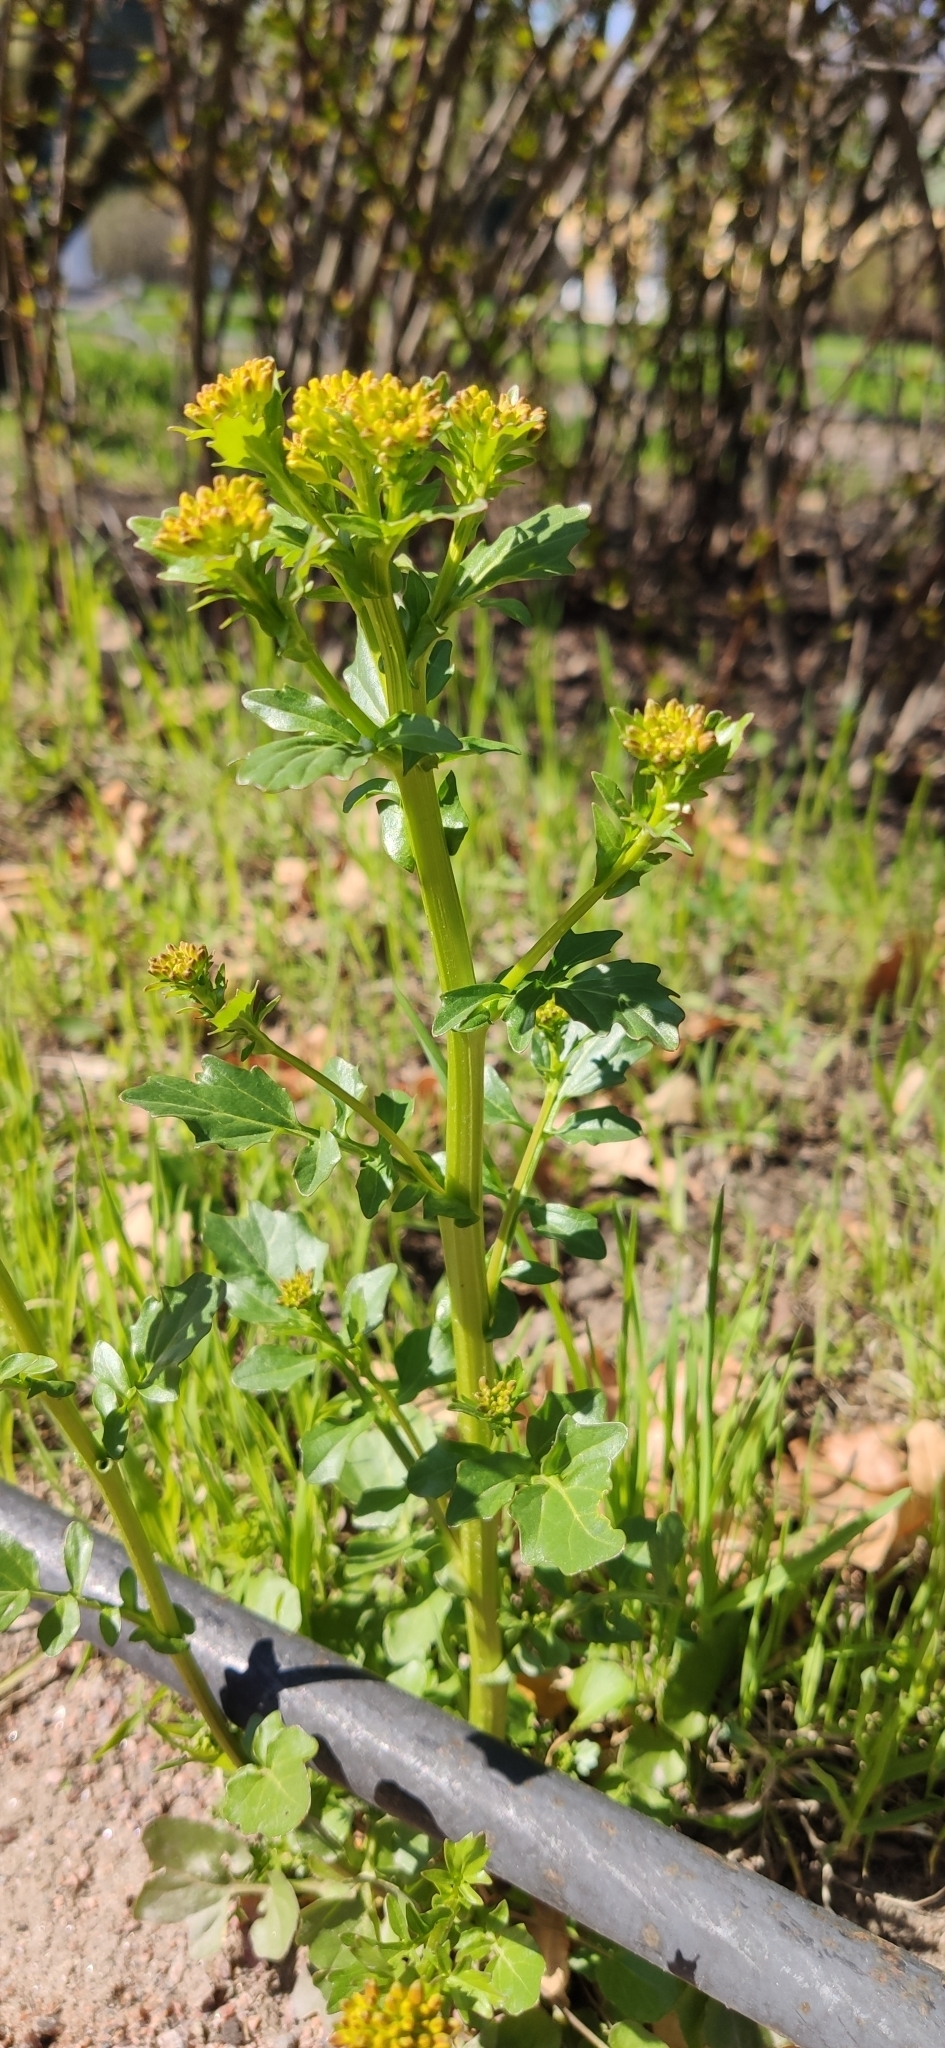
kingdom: Plantae
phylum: Tracheophyta
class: Magnoliopsida
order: Brassicales
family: Brassicaceae
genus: Barbarea
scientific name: Barbarea vulgaris
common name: Cressy-greens
